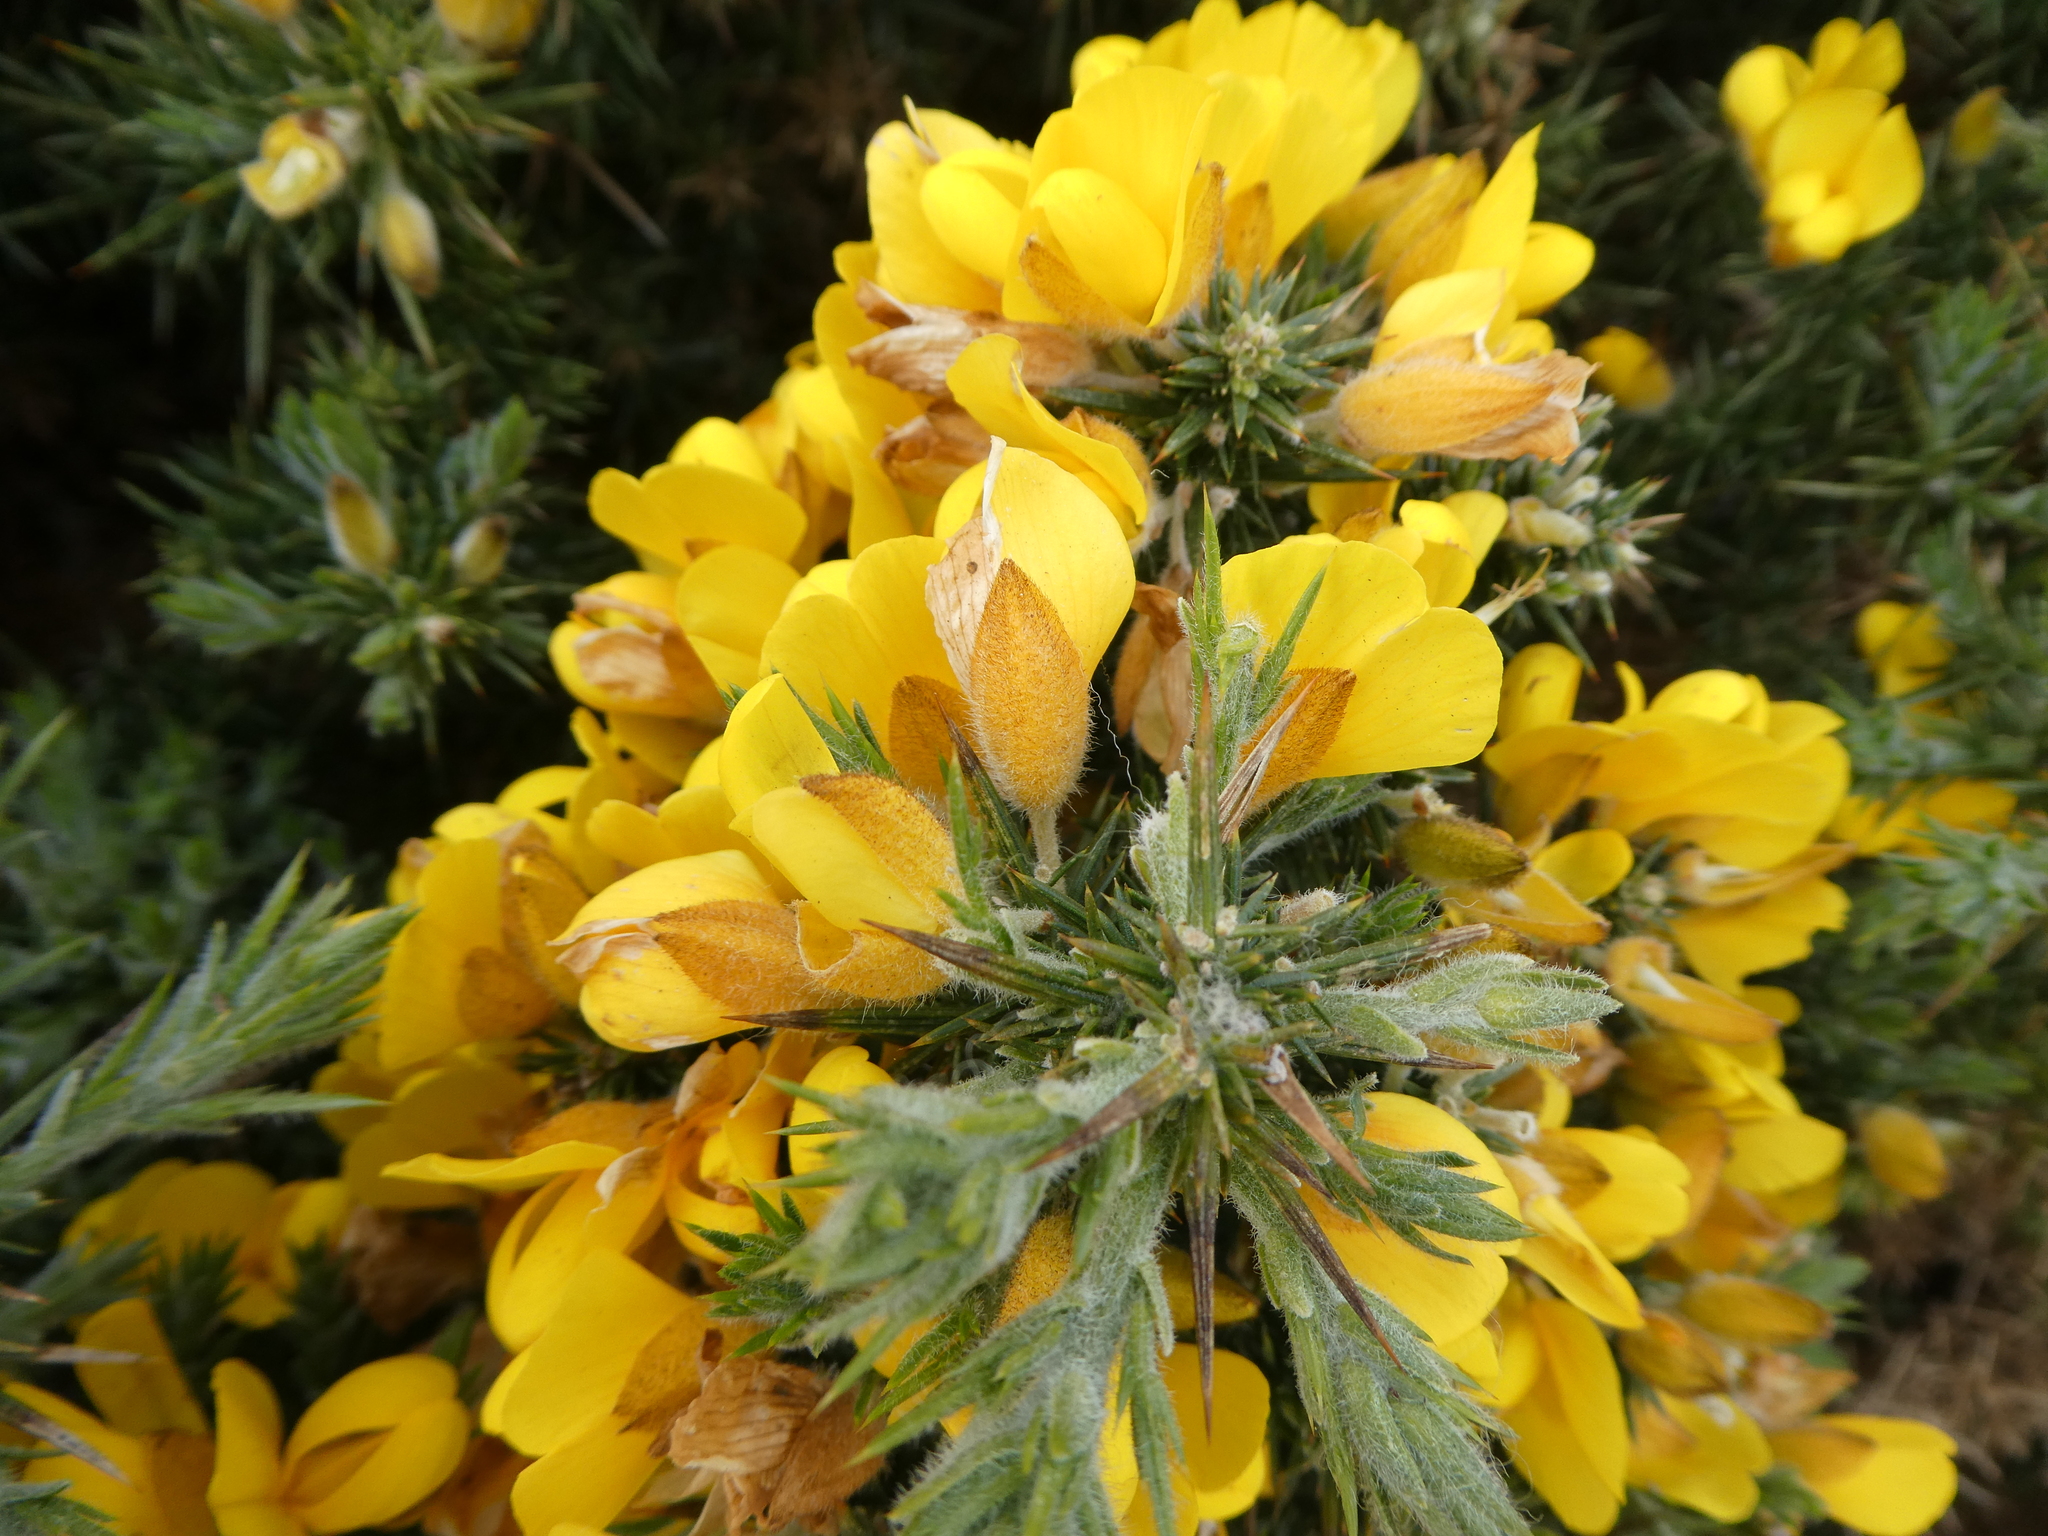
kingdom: Plantae
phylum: Tracheophyta
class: Magnoliopsida
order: Fabales
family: Fabaceae
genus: Ulex
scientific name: Ulex europaeus
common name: Common gorse
